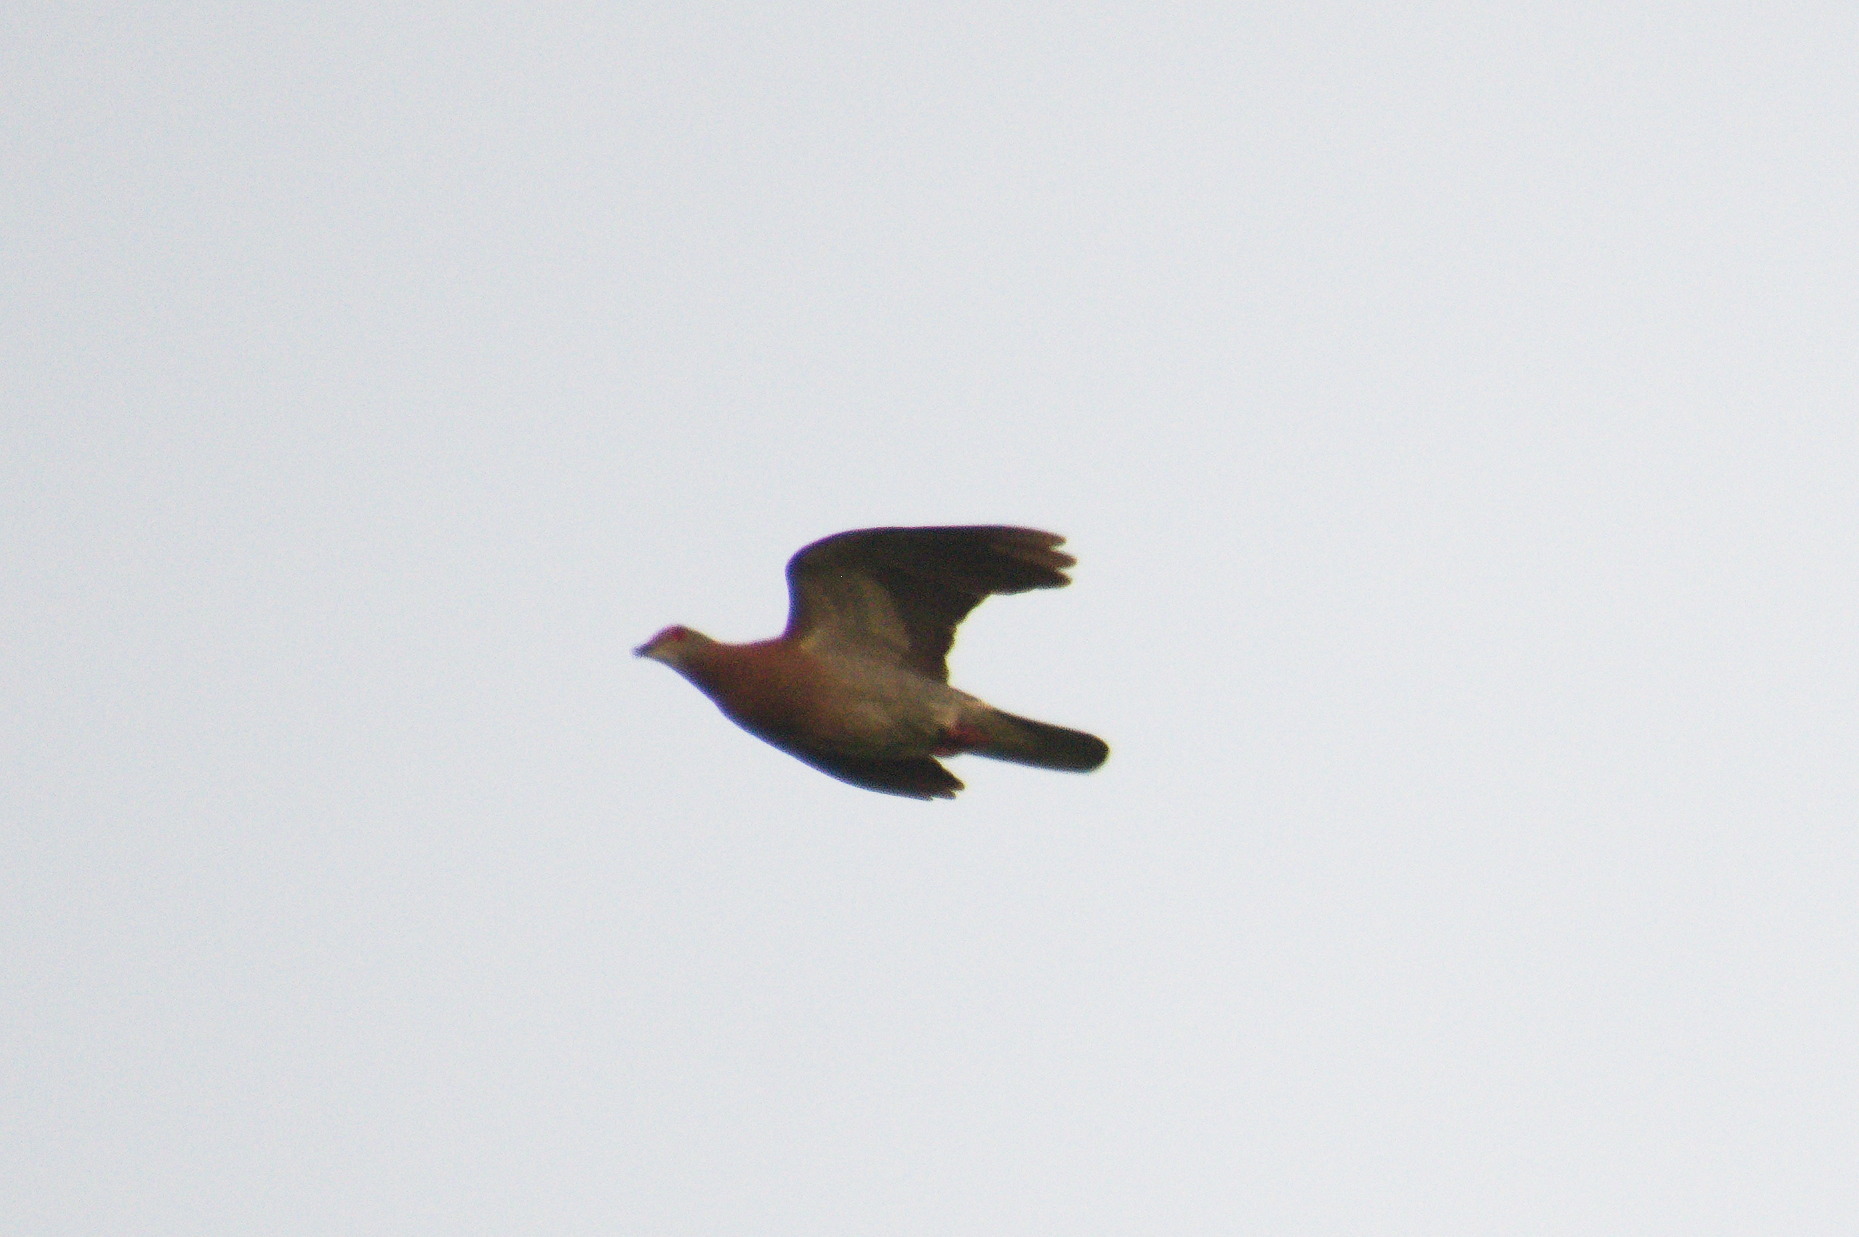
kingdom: Animalia
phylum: Chordata
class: Aves
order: Columbiformes
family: Columbidae
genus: Patagioenas
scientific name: Patagioenas cayennensis
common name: Pale-vented pigeon
